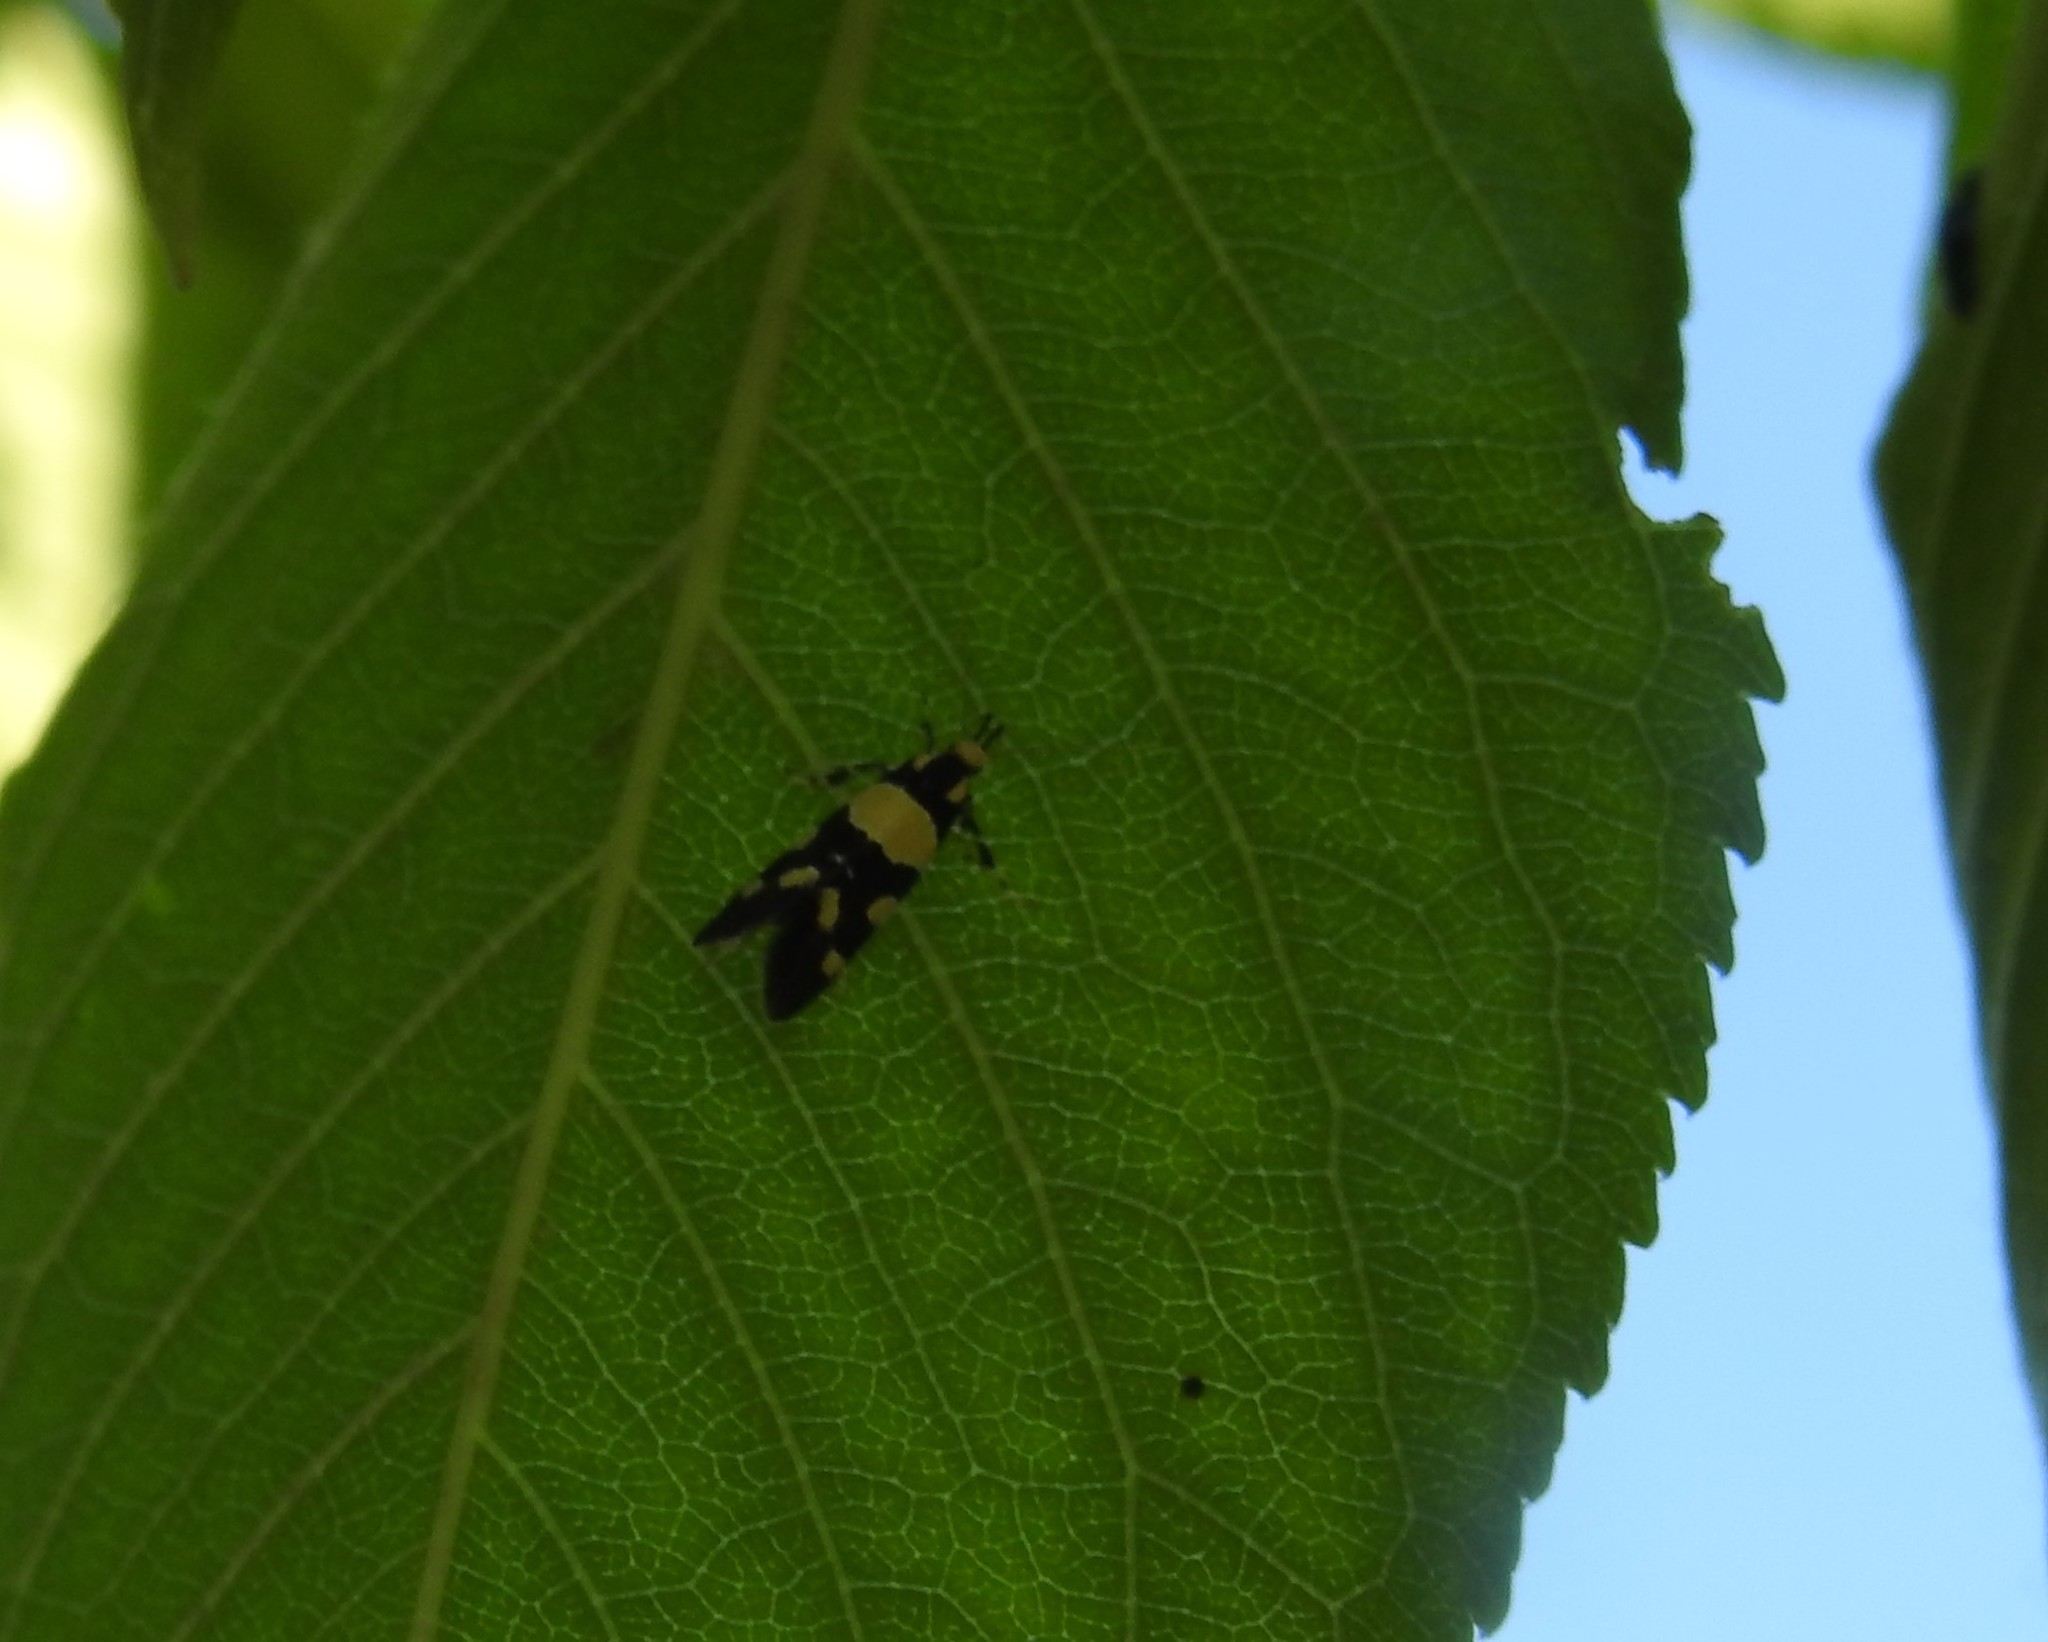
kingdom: Animalia
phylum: Arthropoda
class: Insecta
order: Lepidoptera
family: Oecophoridae
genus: Schiffermuelleria
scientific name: Schiffermuelleria amasiella
